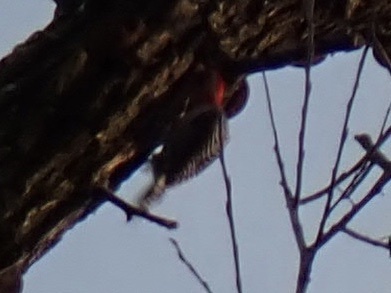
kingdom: Animalia
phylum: Chordata
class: Aves
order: Piciformes
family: Picidae
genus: Melanerpes
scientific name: Melanerpes carolinus
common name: Red-bellied woodpecker
